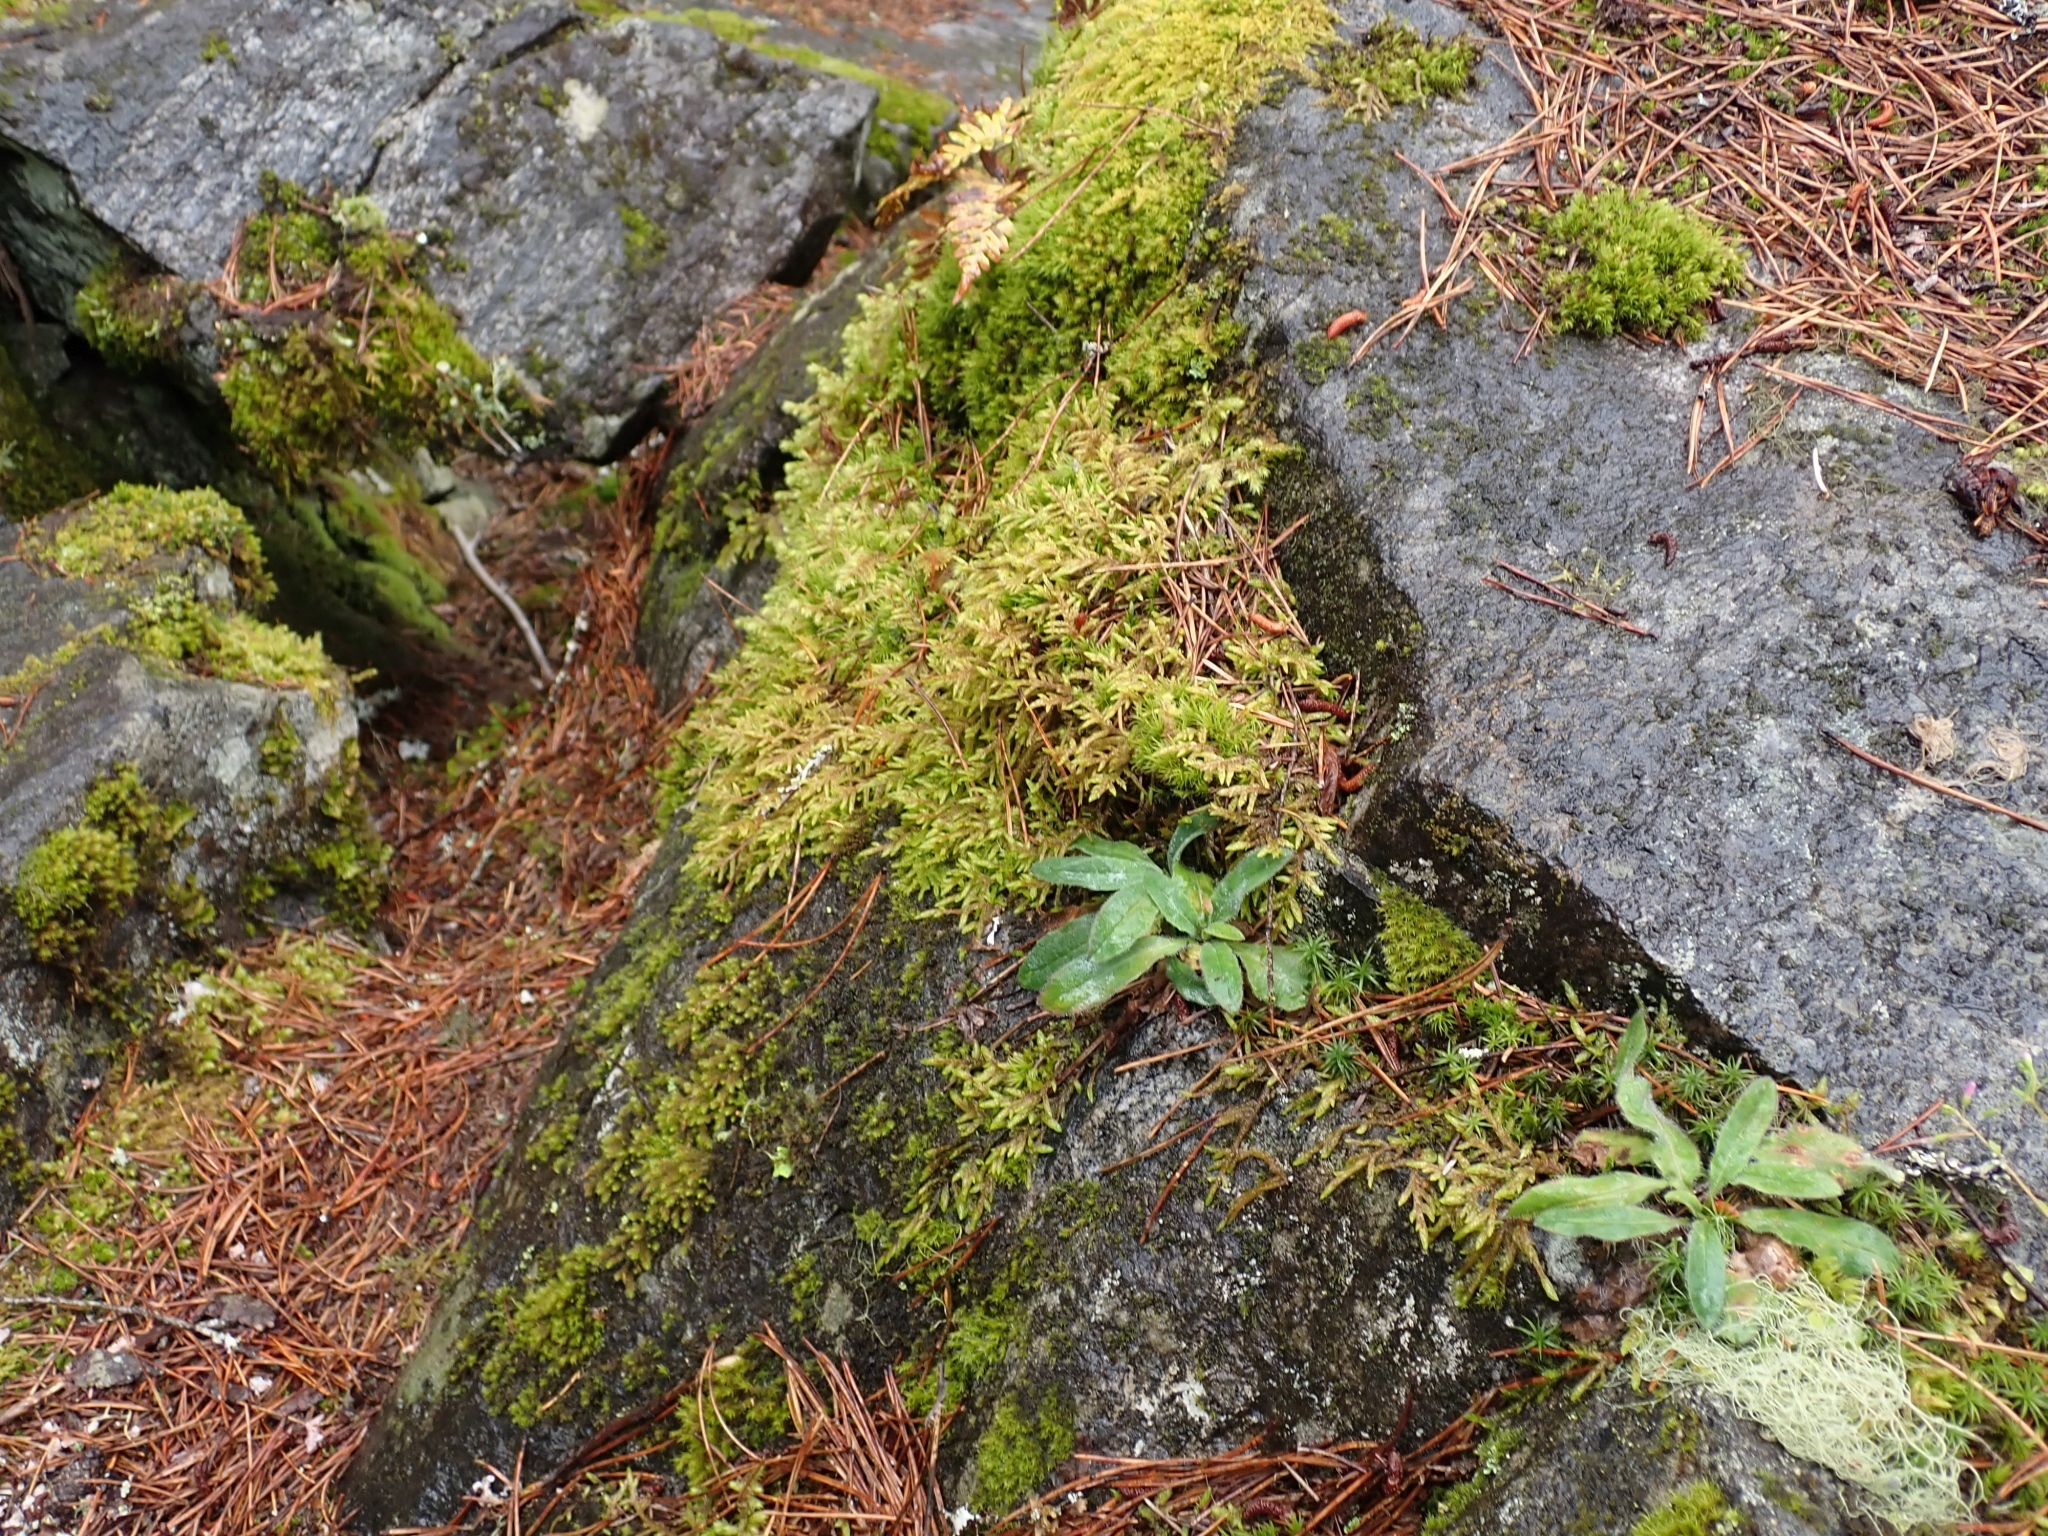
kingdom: Plantae
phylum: Bryophyta
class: Bryopsida
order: Hypnales
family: Hylocomiaceae
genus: Pleurozium
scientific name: Pleurozium schreberi
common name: Red-stemmed feather moss
